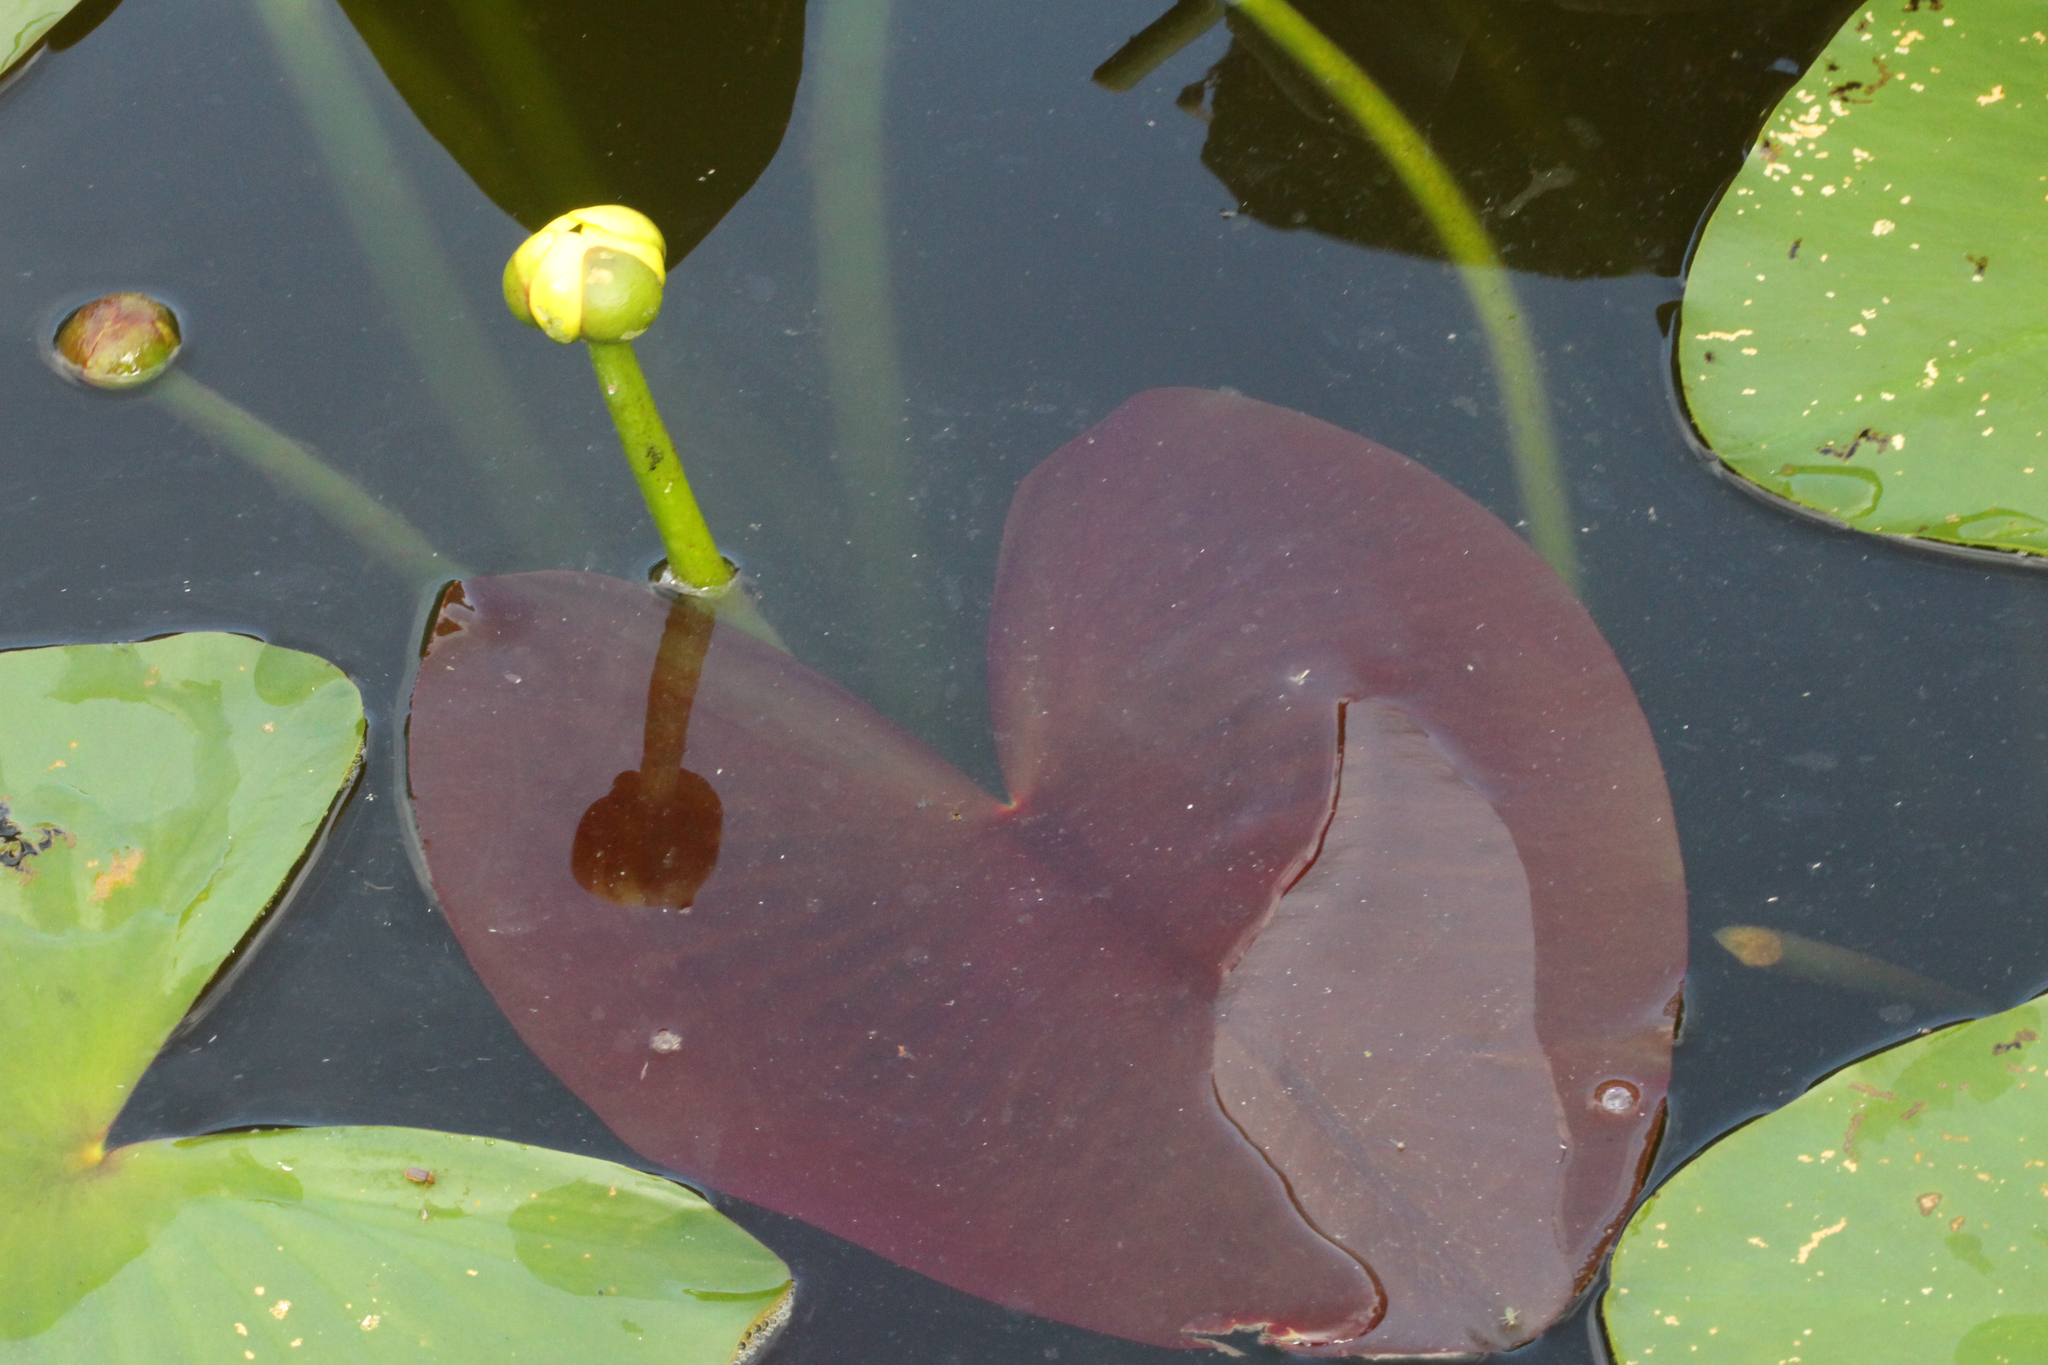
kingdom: Plantae
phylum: Tracheophyta
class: Magnoliopsida
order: Nymphaeales
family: Nymphaeaceae
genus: Nuphar
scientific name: Nuphar advena
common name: Spatter-dock
